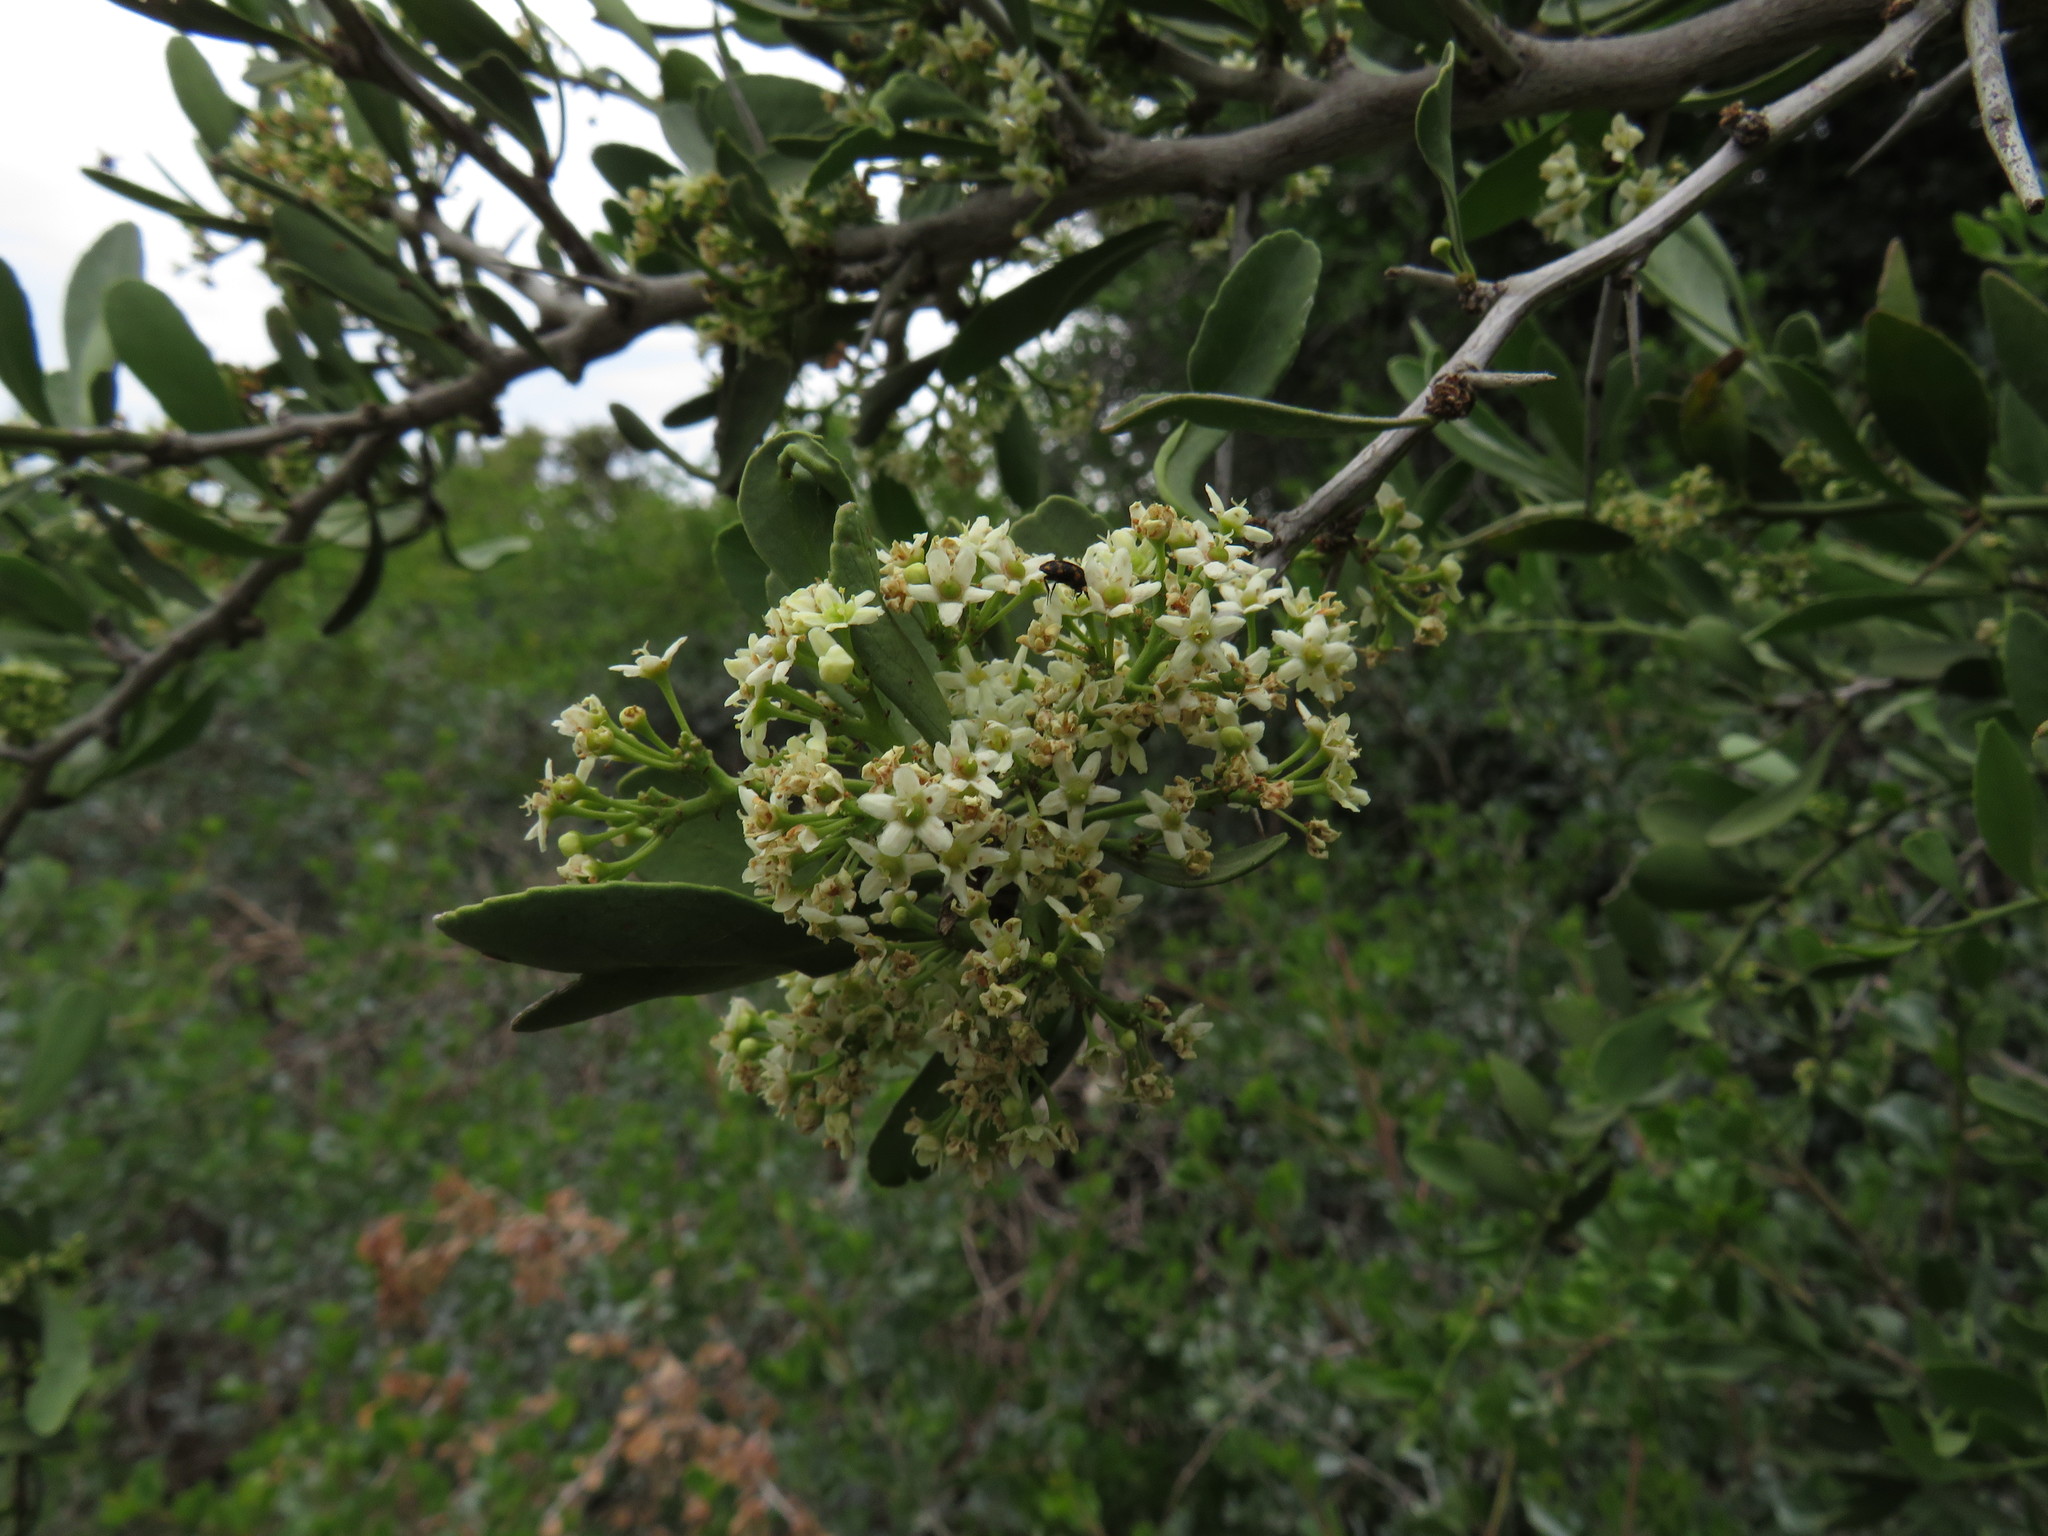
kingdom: Plantae
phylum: Tracheophyta
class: Magnoliopsida
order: Celastrales
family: Celastraceae
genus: Gymnosporia
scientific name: Gymnosporia buxifolia
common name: Common spike-thorn
